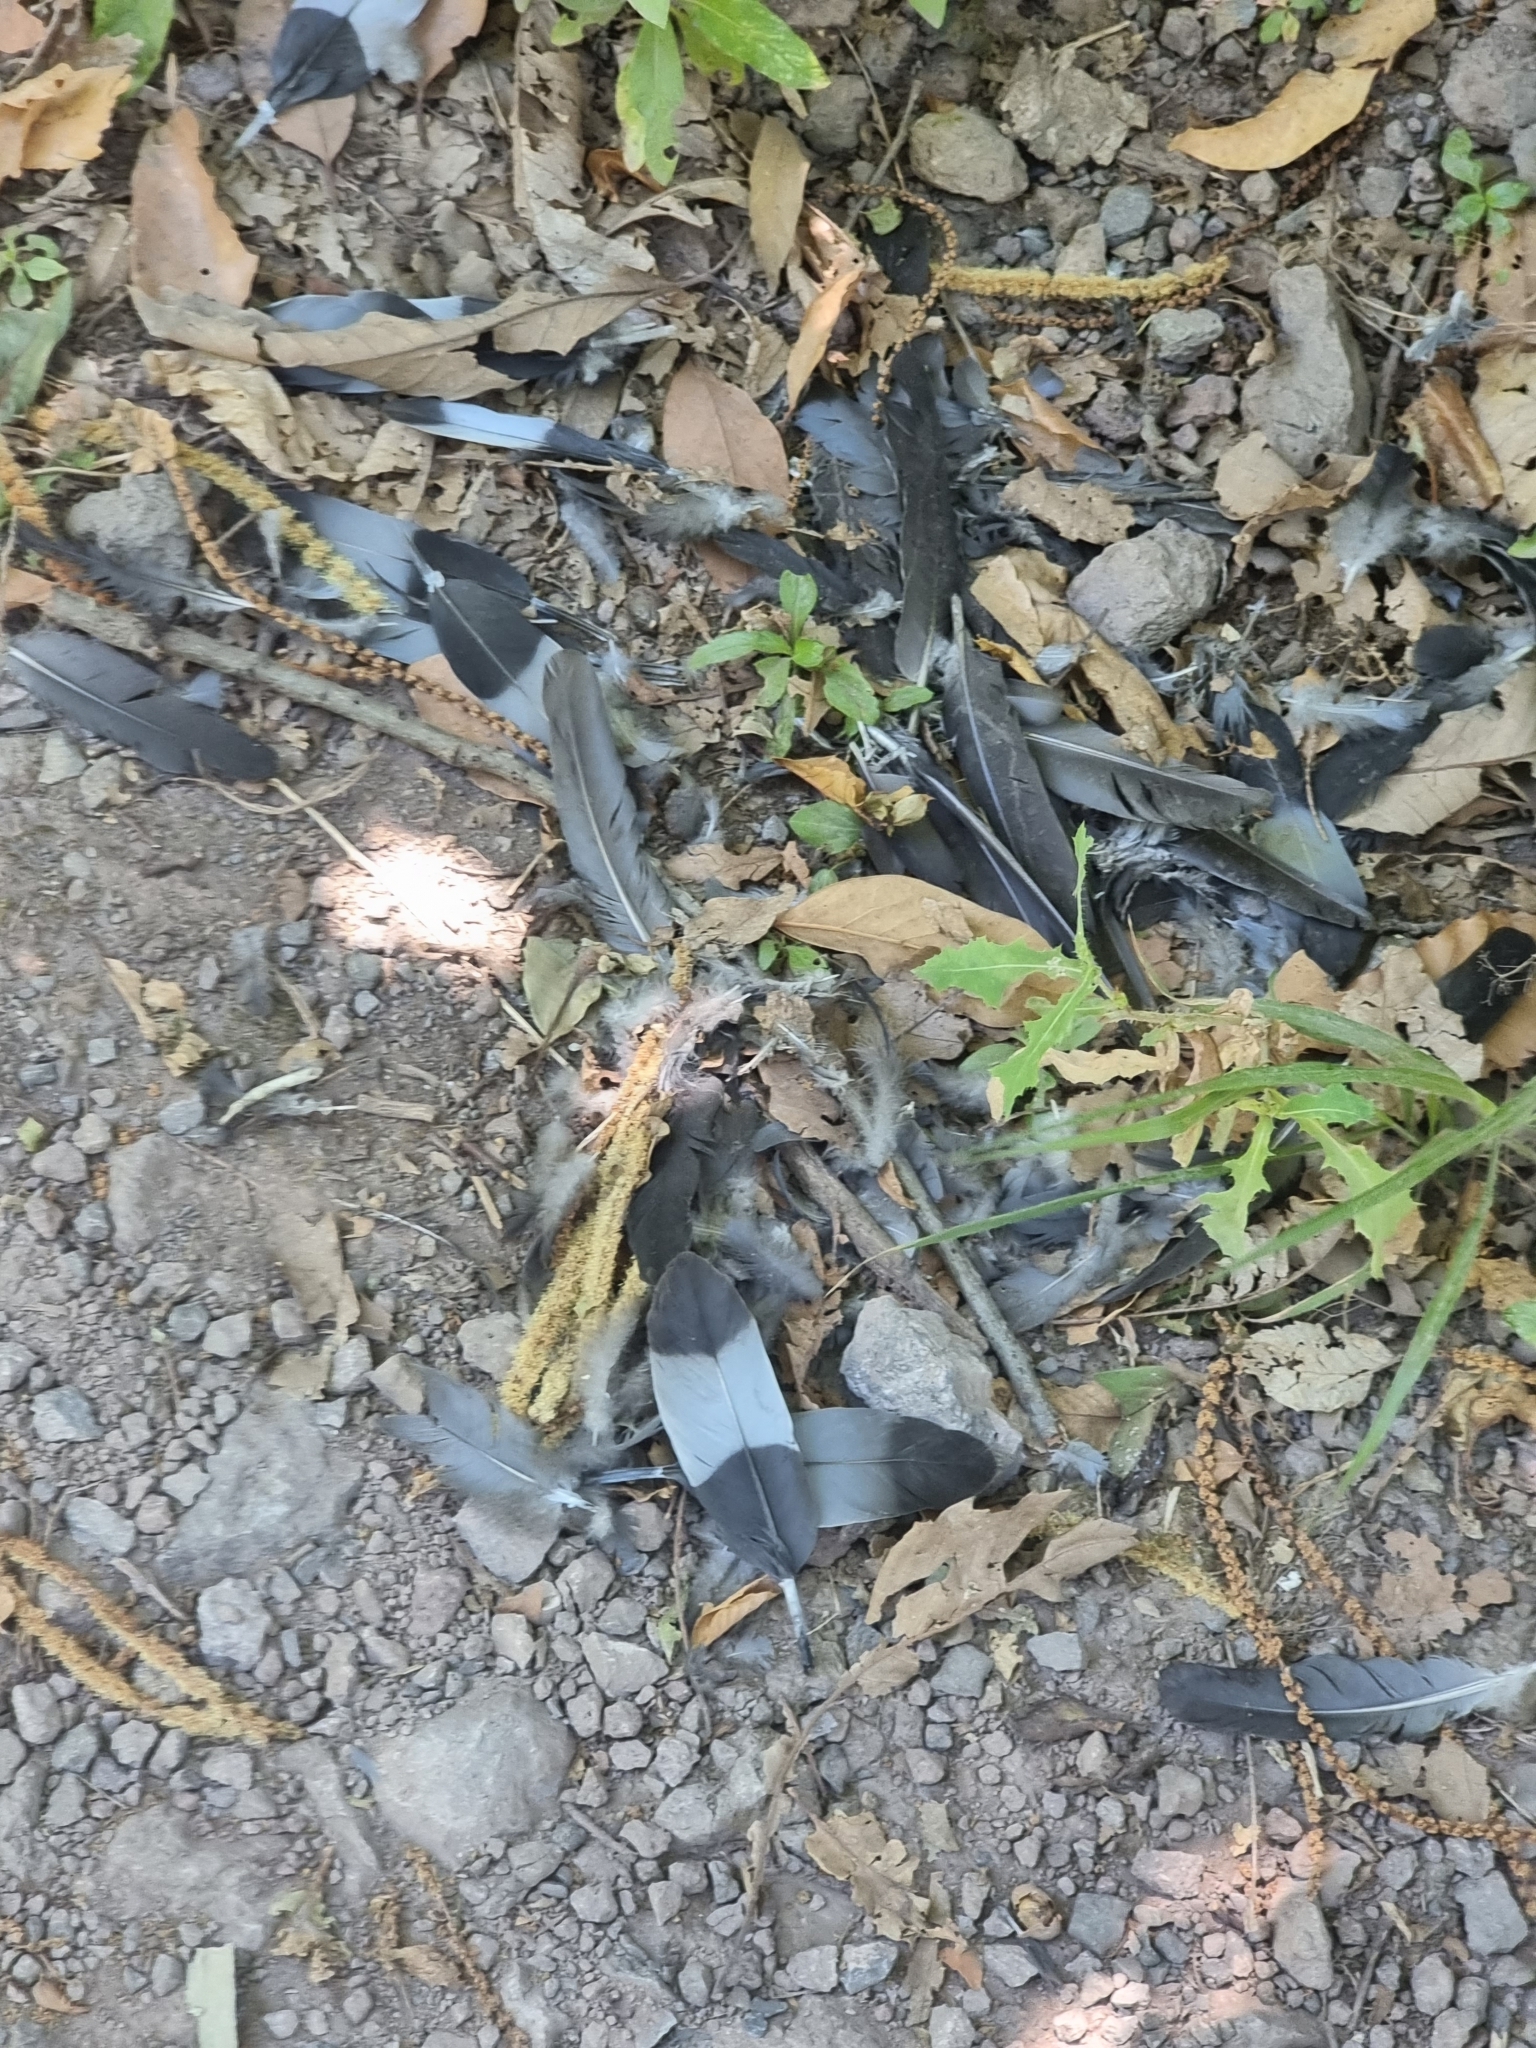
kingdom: Animalia
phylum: Chordata
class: Aves
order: Columbiformes
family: Columbidae
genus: Columba
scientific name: Columba trocaz
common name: Trocaz pigeon
